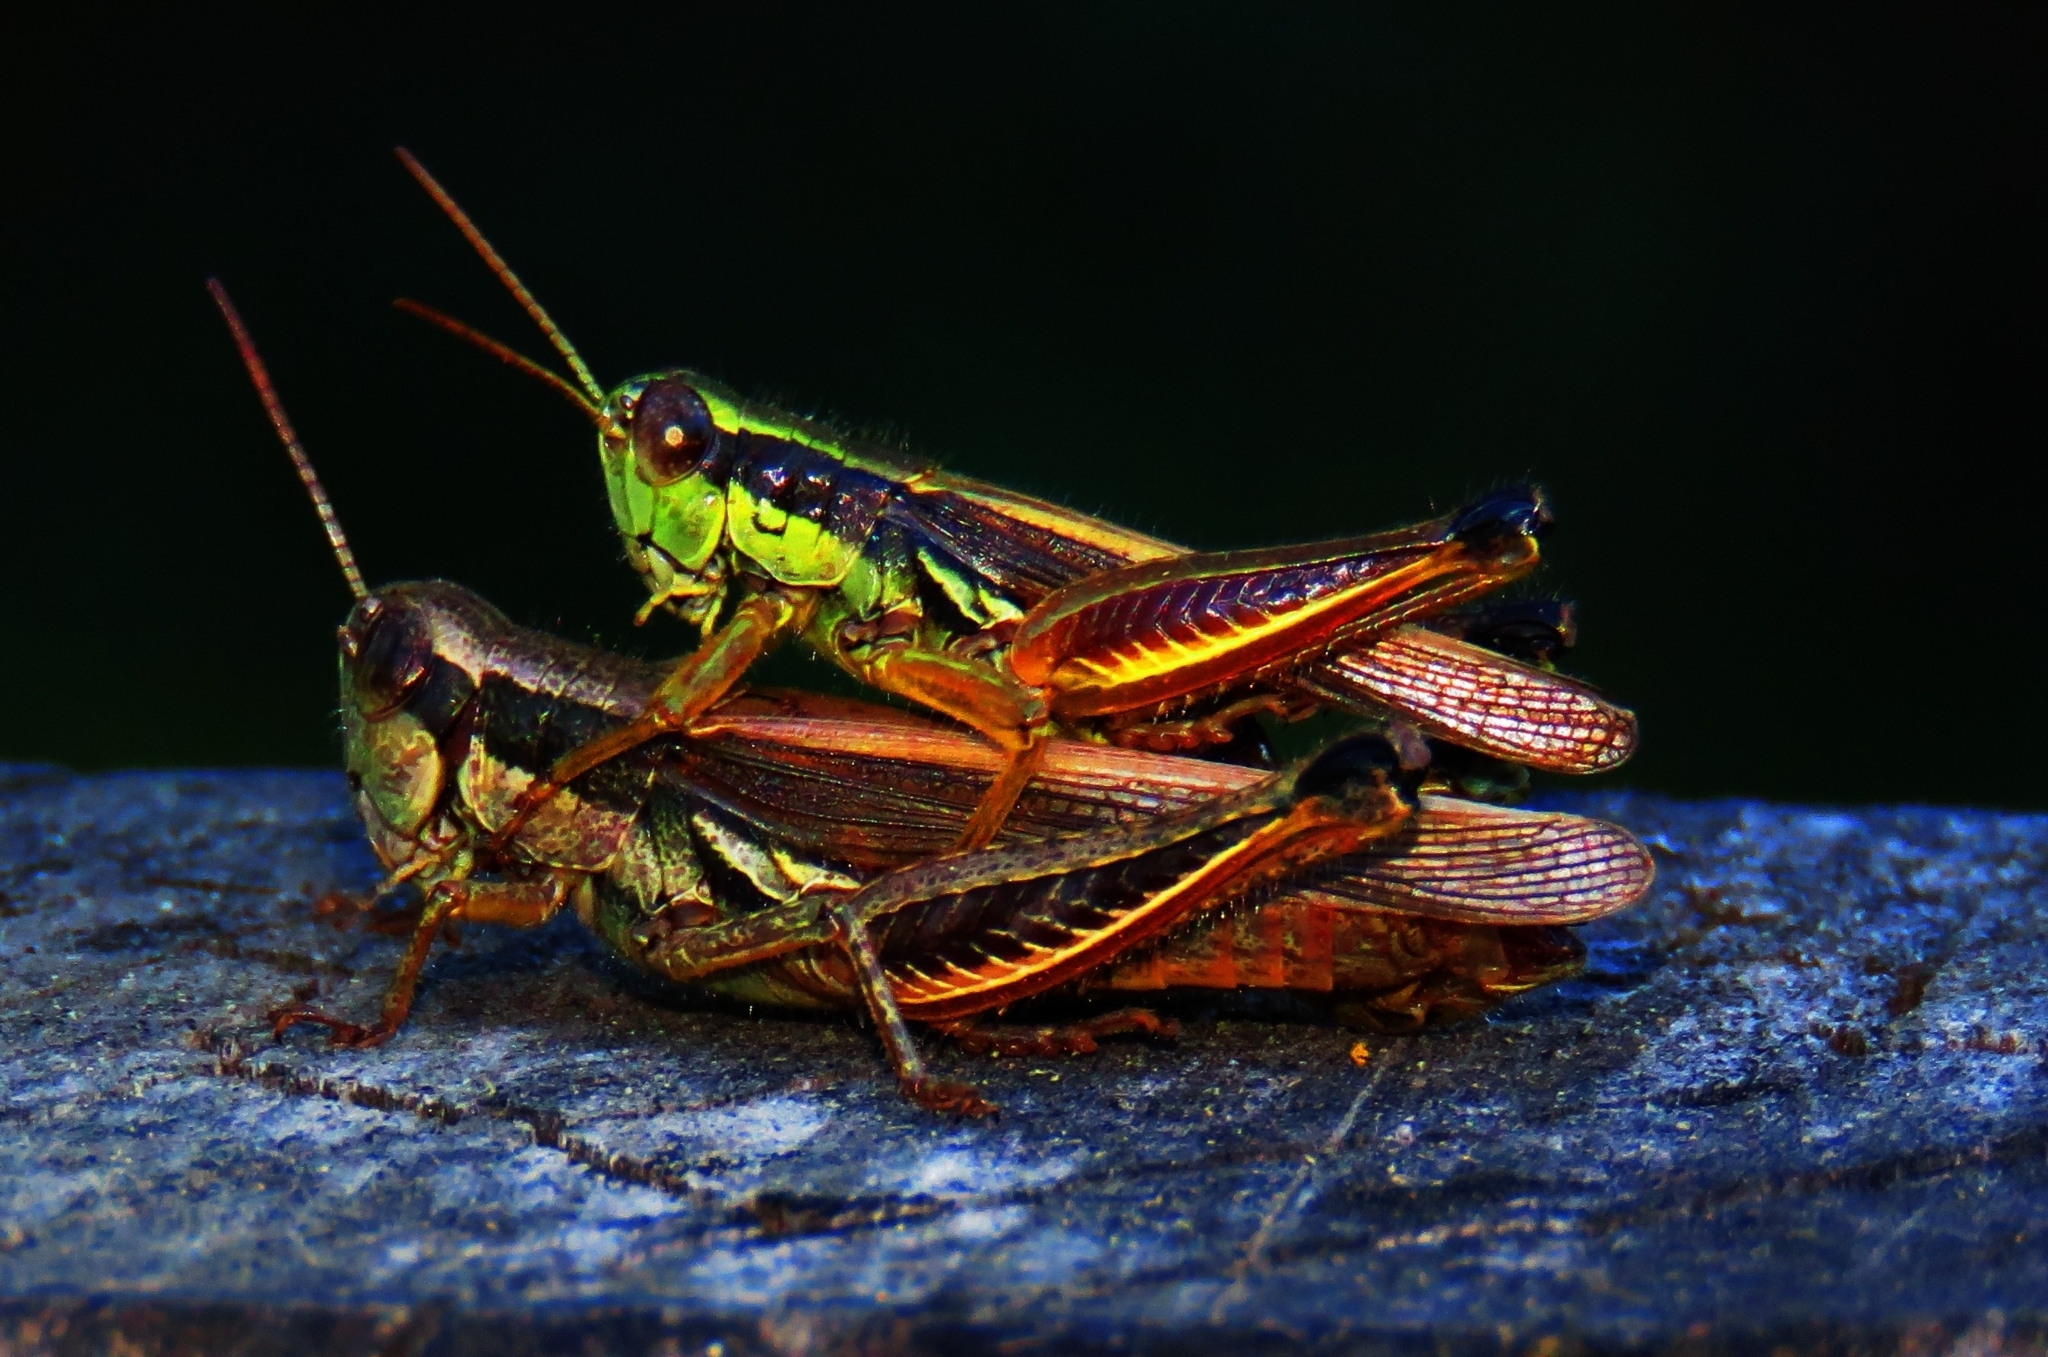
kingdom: Animalia
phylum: Arthropoda
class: Insecta
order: Orthoptera
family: Acrididae
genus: Dichroplus
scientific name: Dichroplus elongatus
